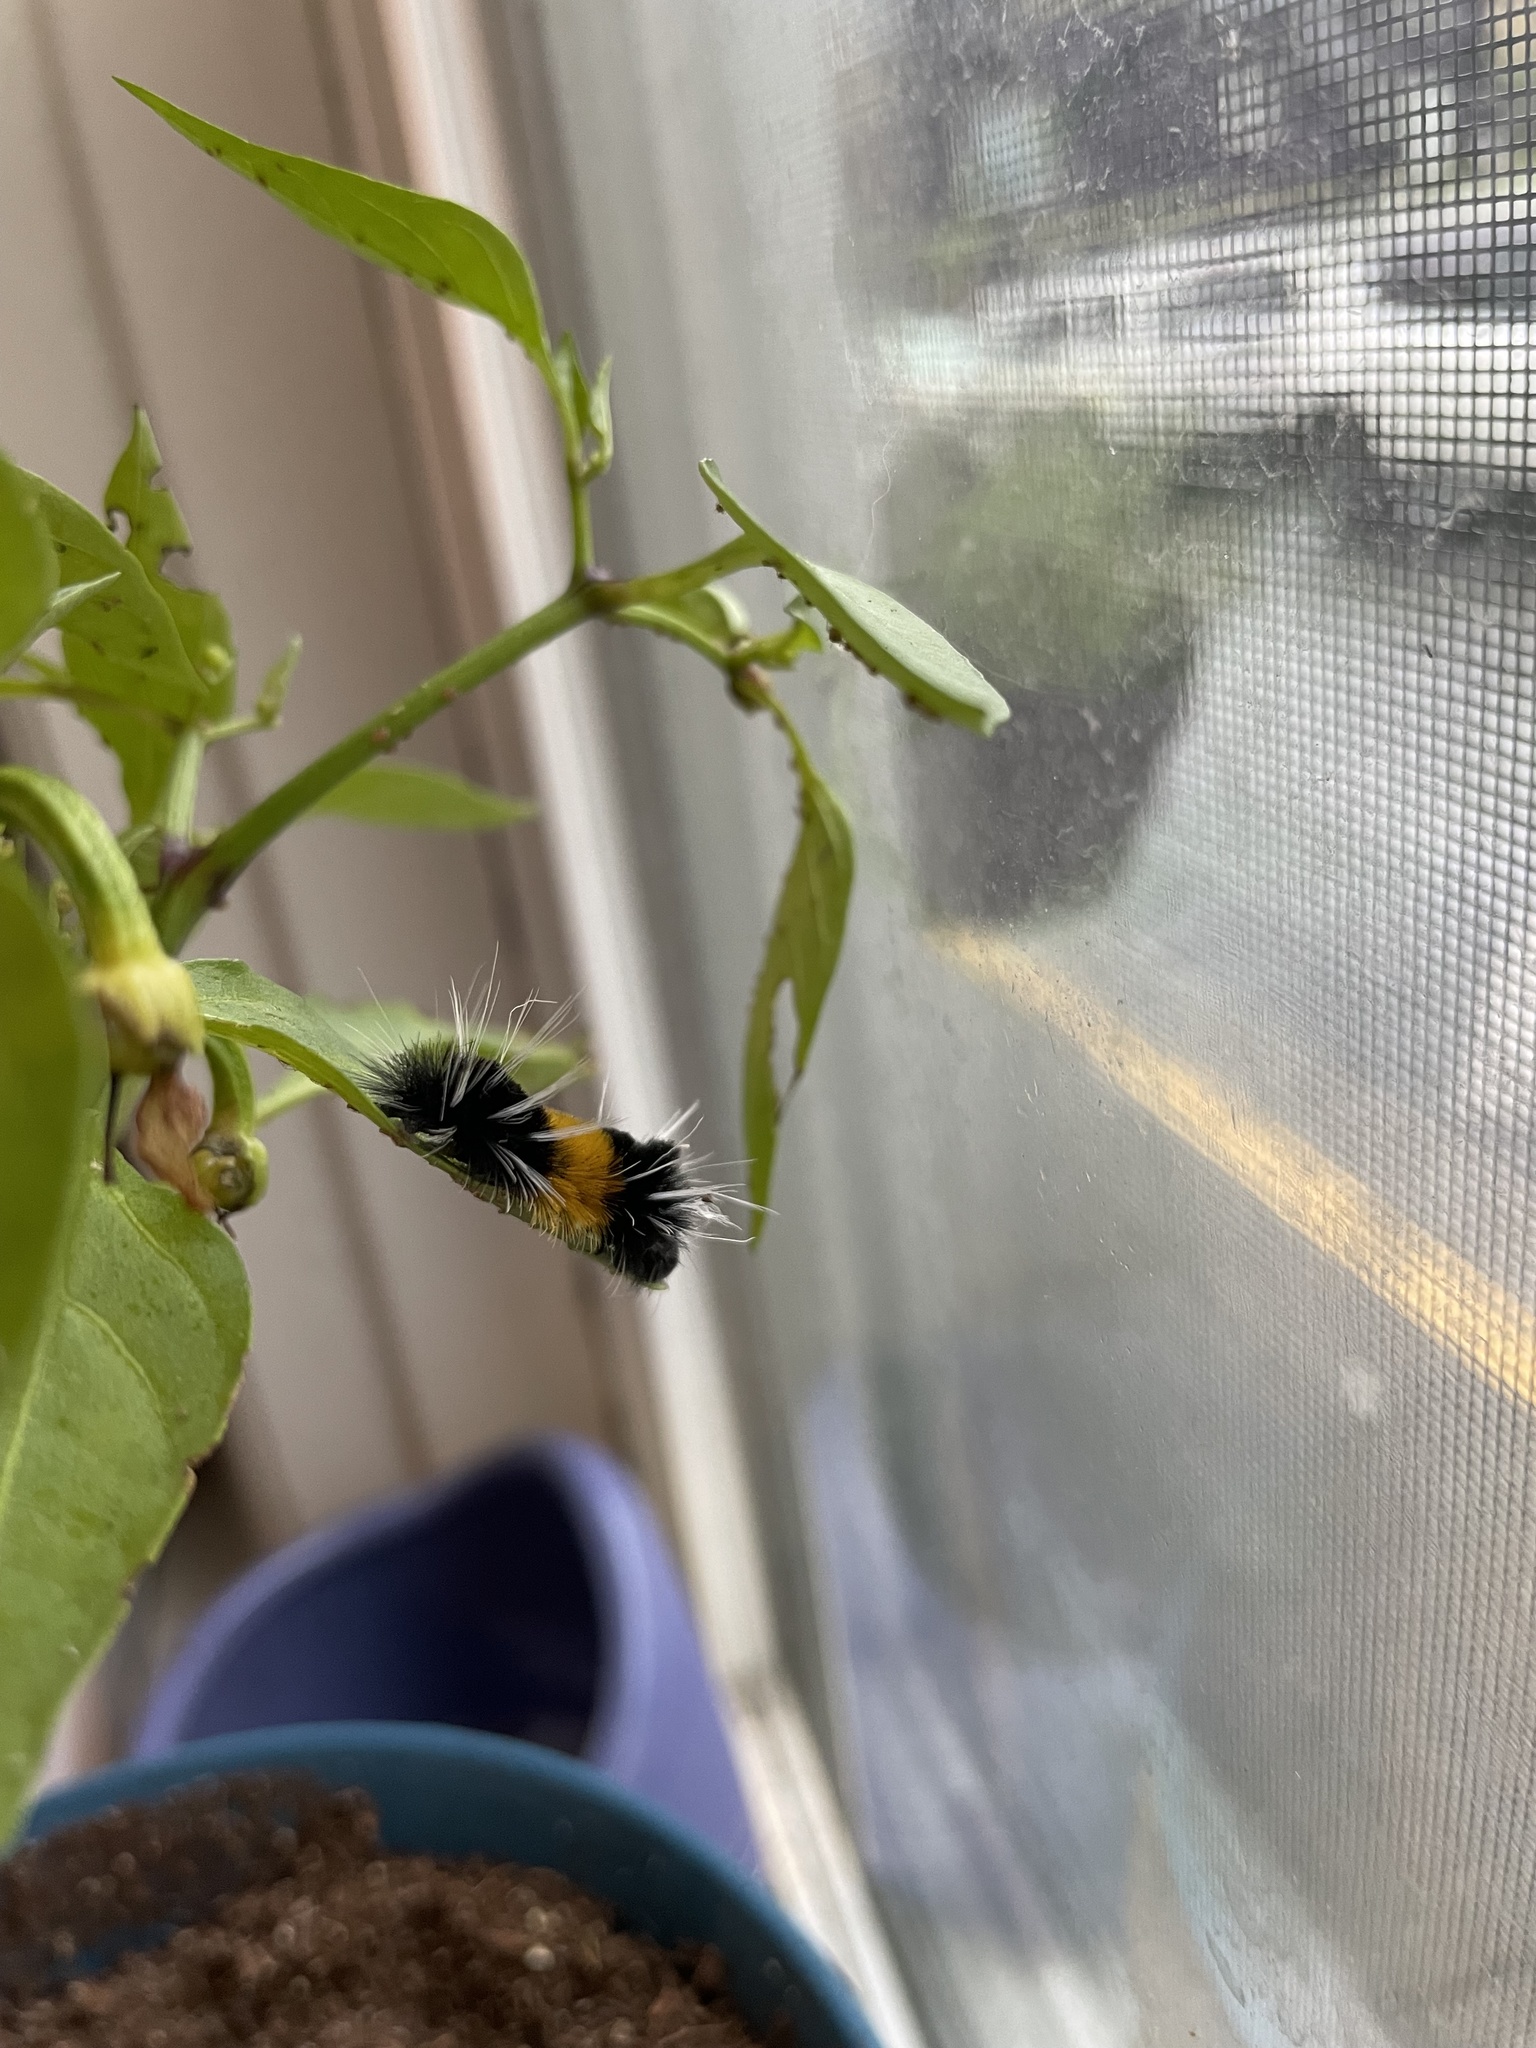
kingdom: Animalia
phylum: Arthropoda
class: Insecta
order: Lepidoptera
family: Erebidae
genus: Lophocampa
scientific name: Lophocampa maculata
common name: Spotted tussock moth
